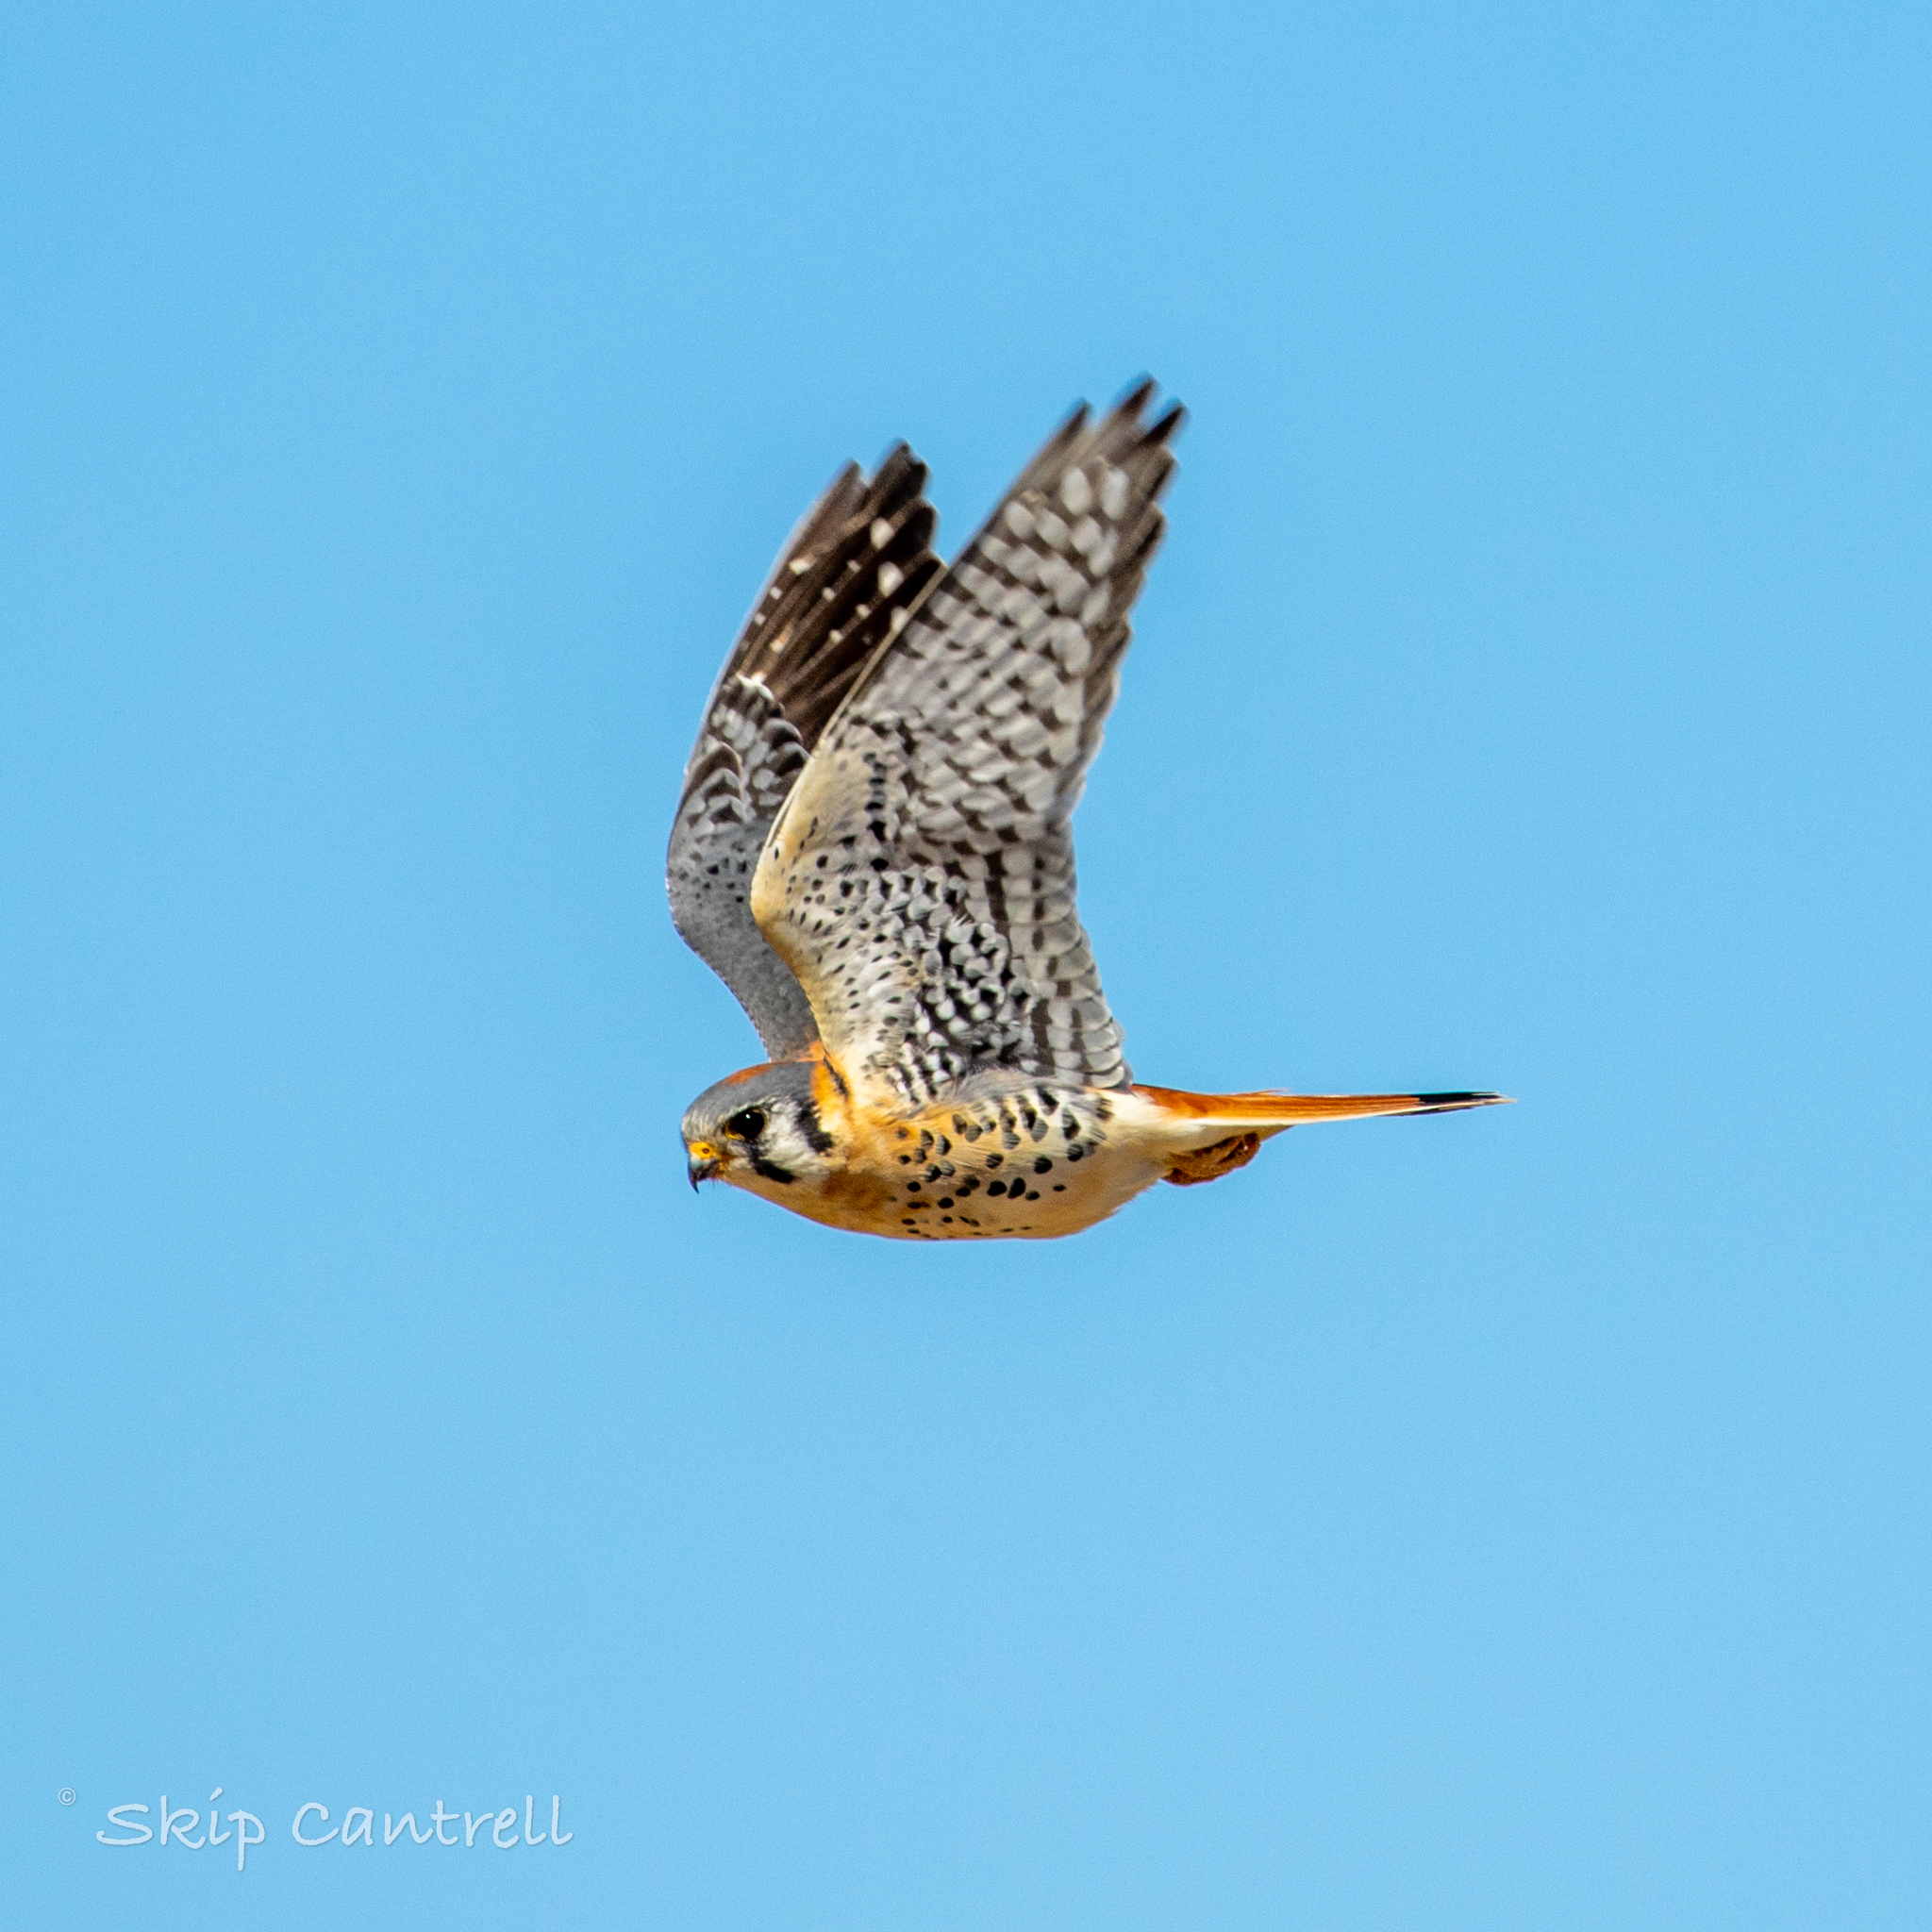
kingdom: Animalia
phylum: Chordata
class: Aves
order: Falconiformes
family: Falconidae
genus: Falco
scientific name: Falco sparverius
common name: American kestrel
